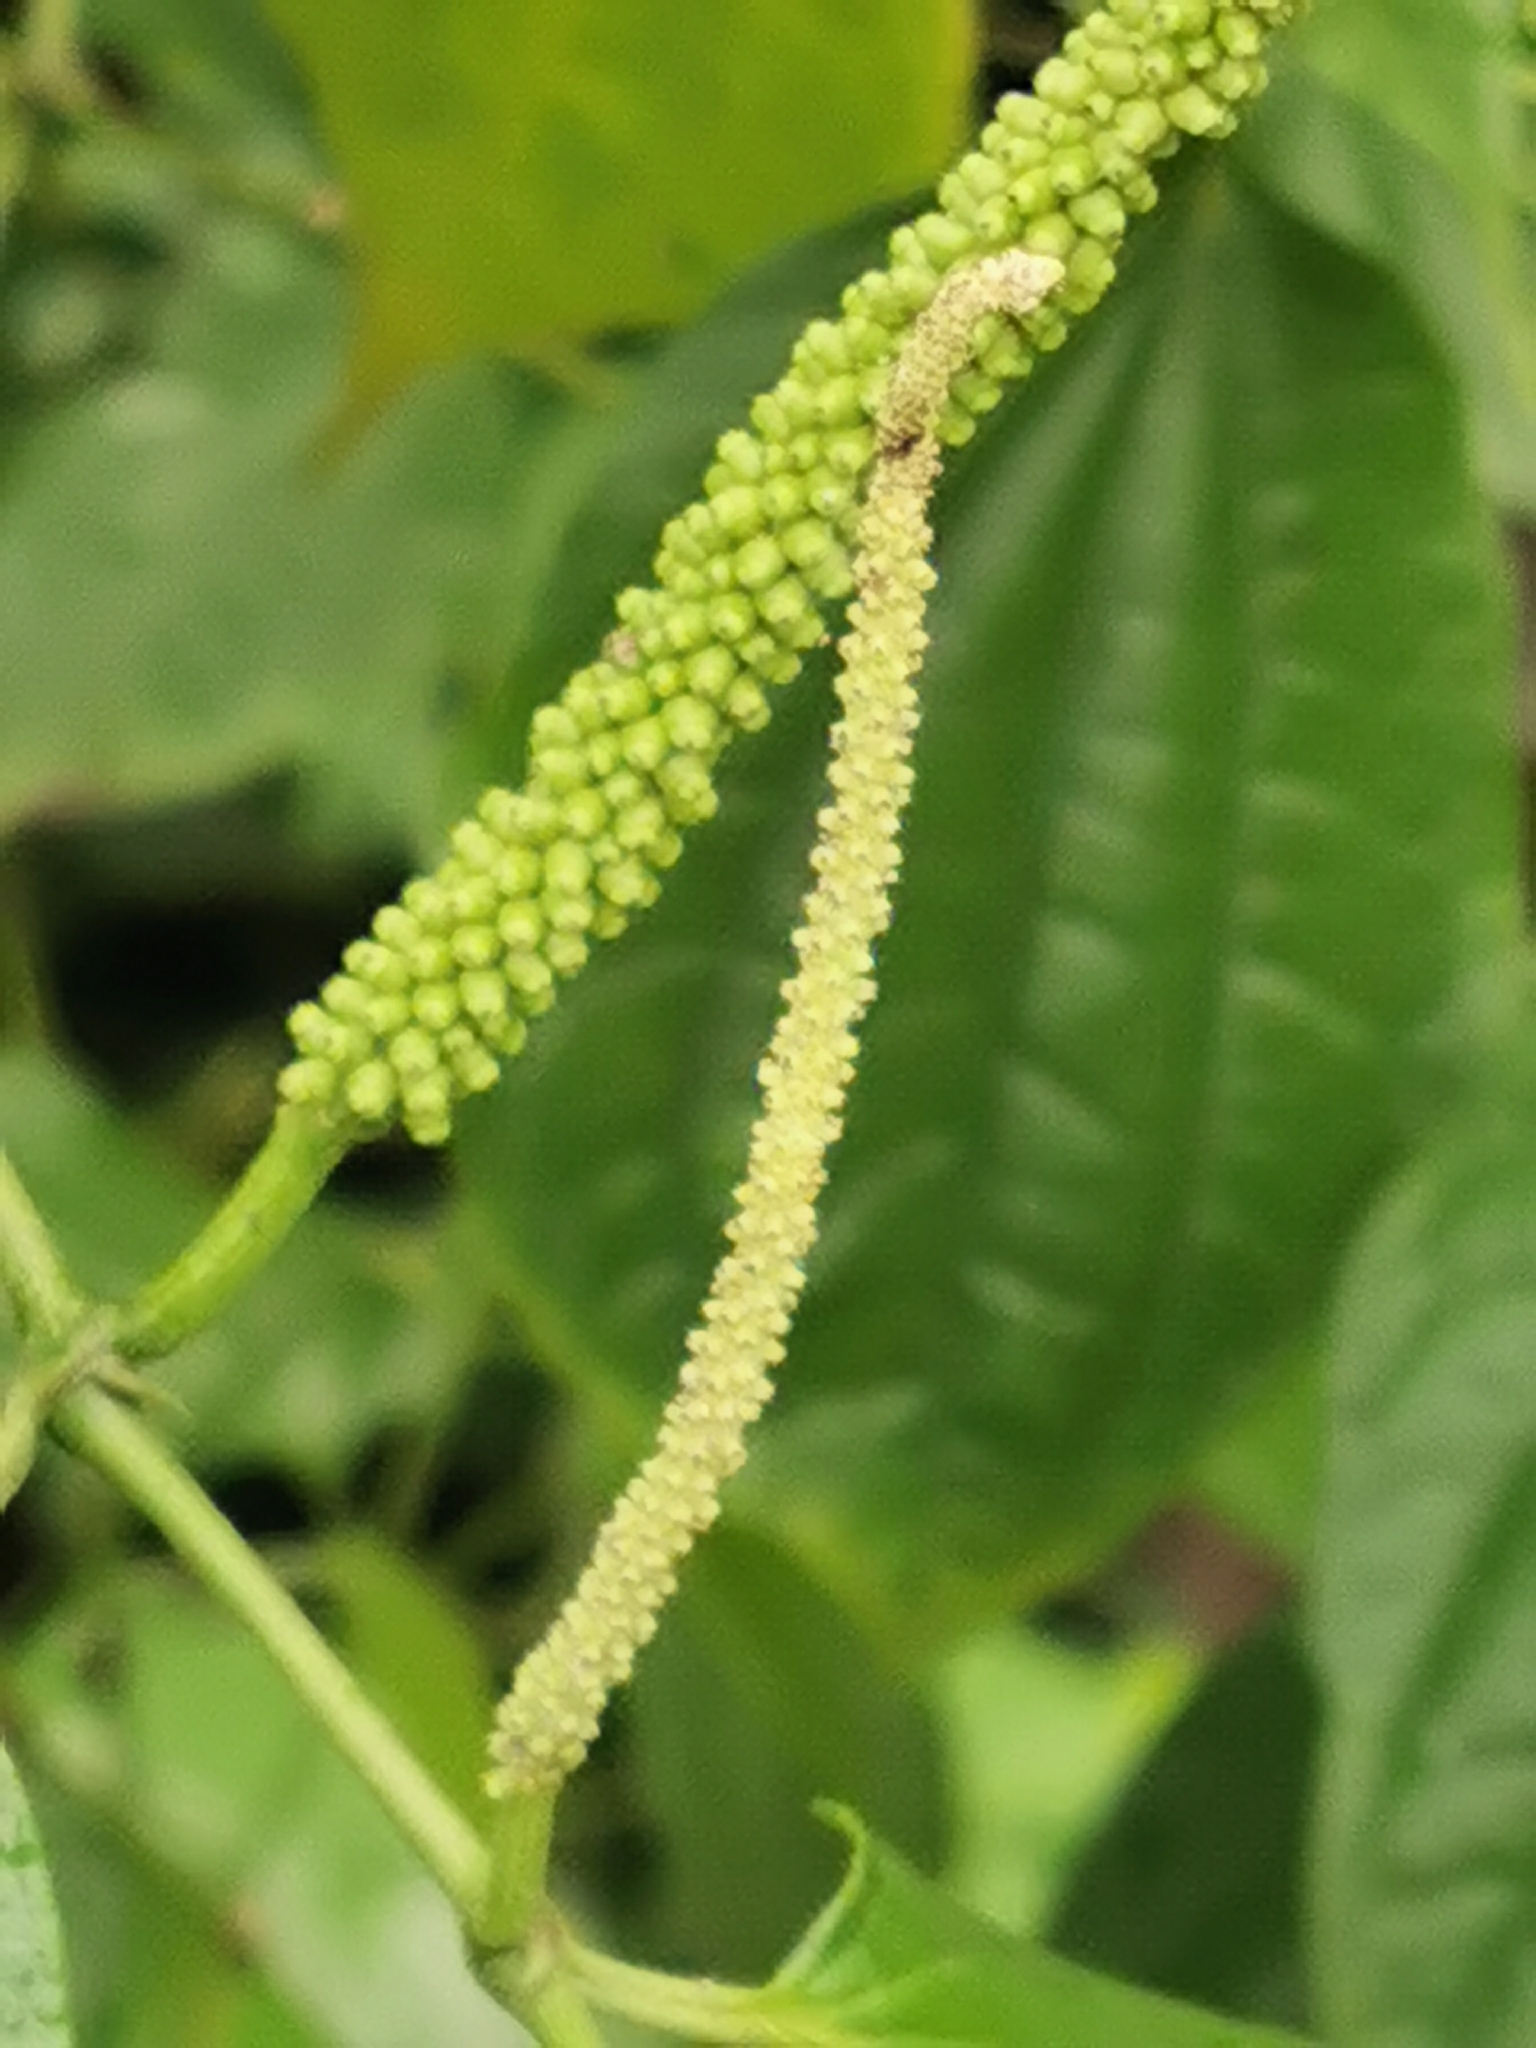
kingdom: Plantae
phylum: Tracheophyta
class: Magnoliopsida
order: Piperales
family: Piperaceae
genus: Piper
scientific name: Piper amalago
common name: Pepper-elder
